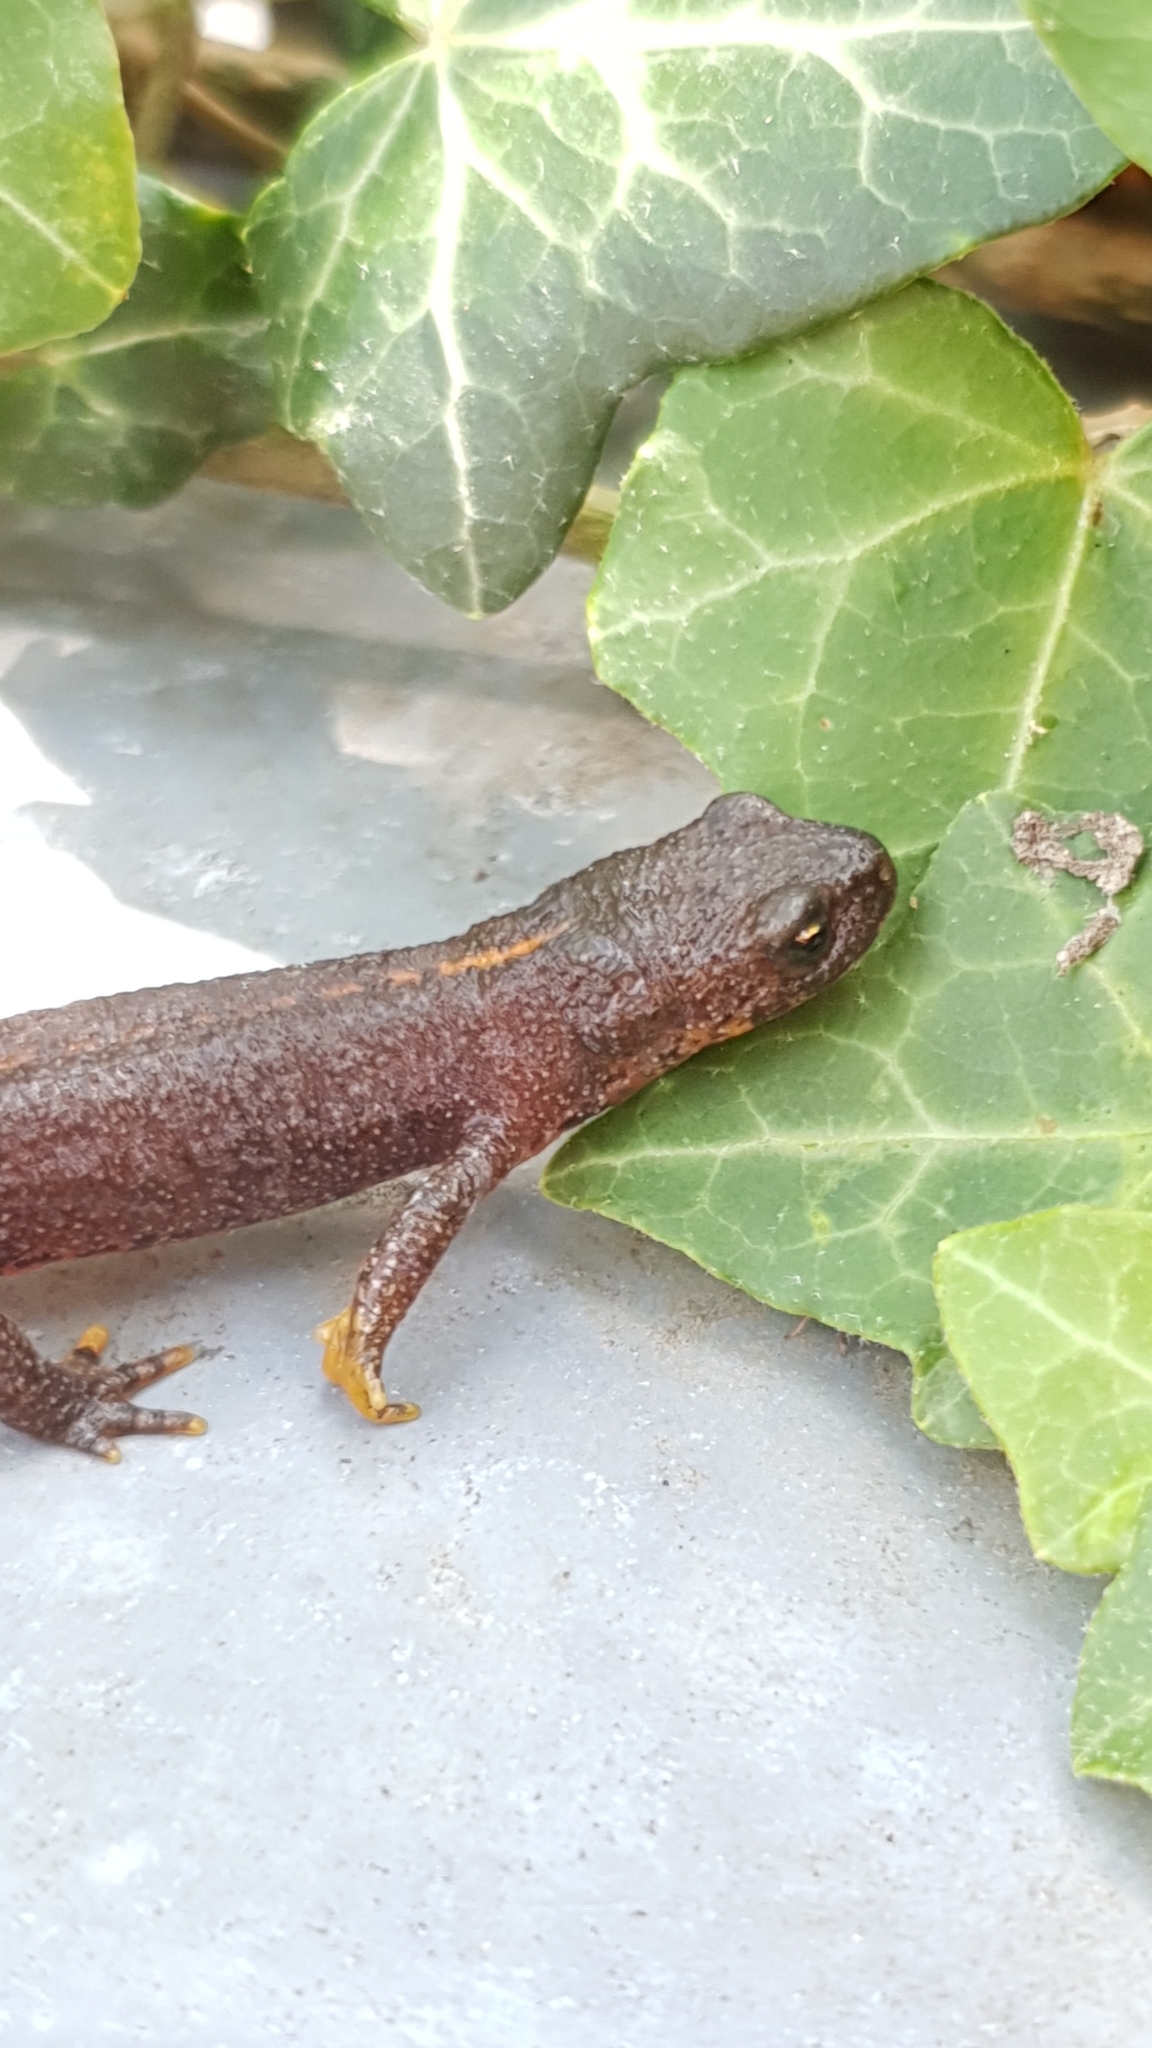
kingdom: Animalia
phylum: Chordata
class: Amphibia
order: Caudata
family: Salamandridae
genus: Ichthyosaura
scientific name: Ichthyosaura alpestris
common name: Alpine newt
